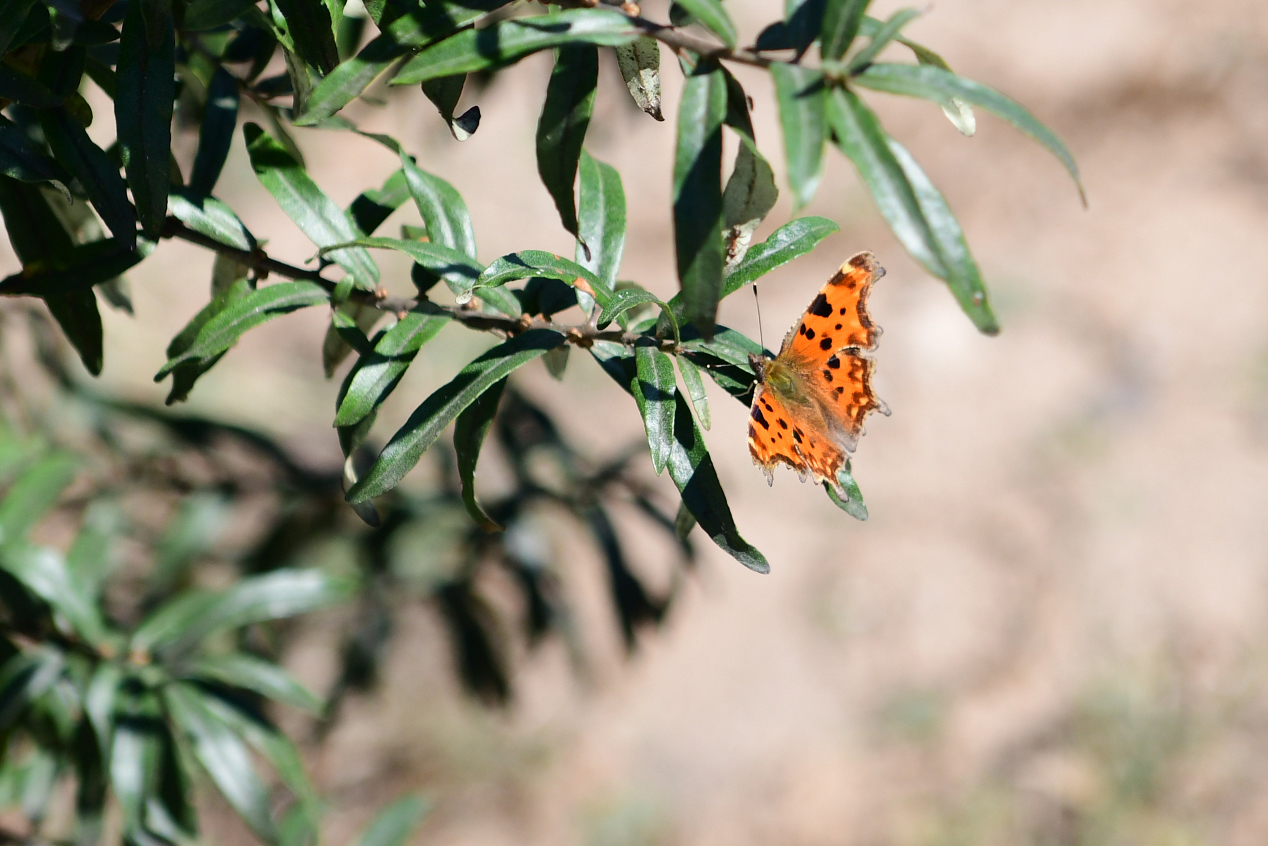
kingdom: Animalia
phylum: Arthropoda
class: Insecta
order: Lepidoptera
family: Nymphalidae
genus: Polygonia
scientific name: Polygonia c-album
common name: Comma
